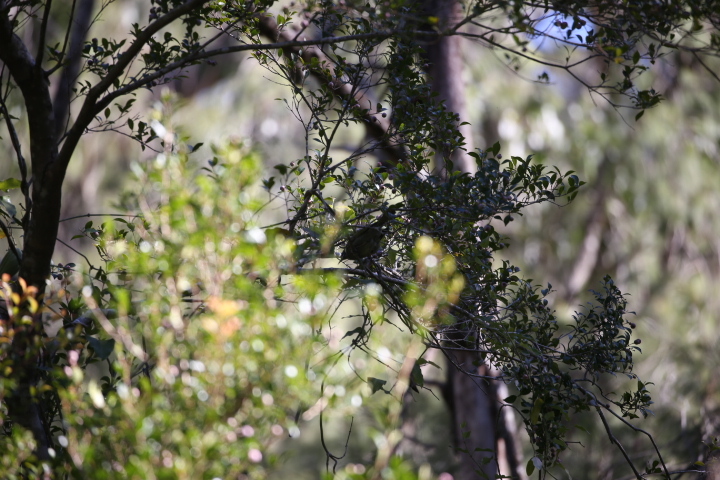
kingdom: Animalia
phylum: Chordata
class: Aves
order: Passeriformes
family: Meliphagidae
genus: Meliphaga
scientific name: Meliphaga lewinii
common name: Lewin's honeyeater
